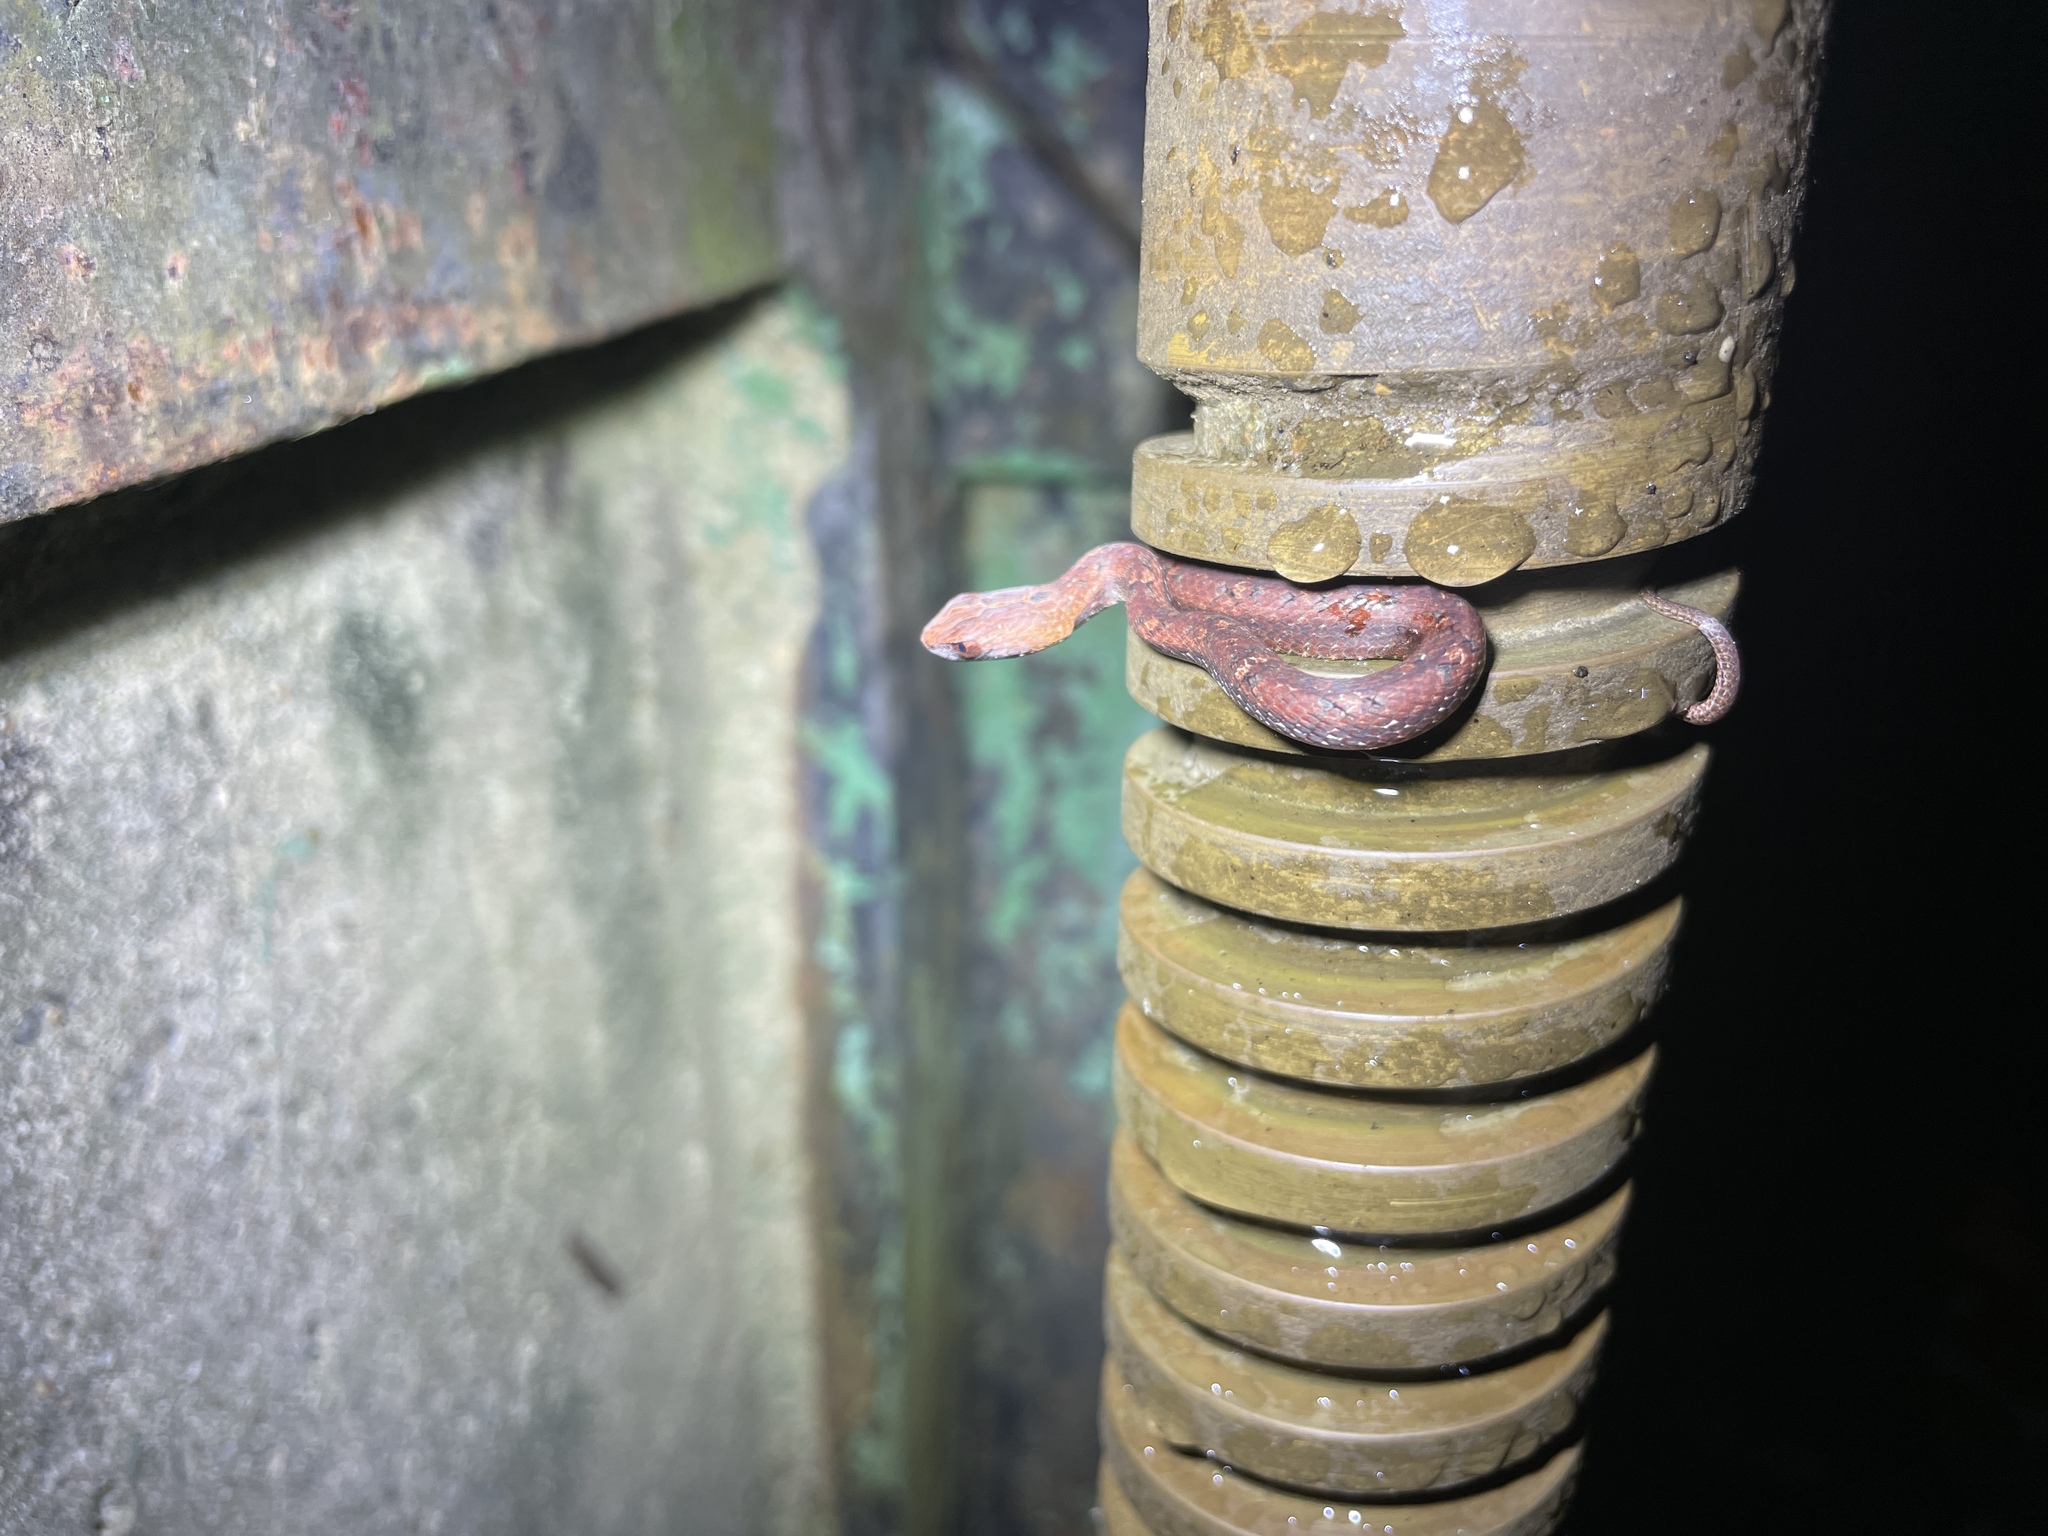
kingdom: Animalia
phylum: Chordata
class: Squamata
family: Pseudaspididae
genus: Psammodynastes
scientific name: Psammodynastes pulverulentus
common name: Common mock viper
